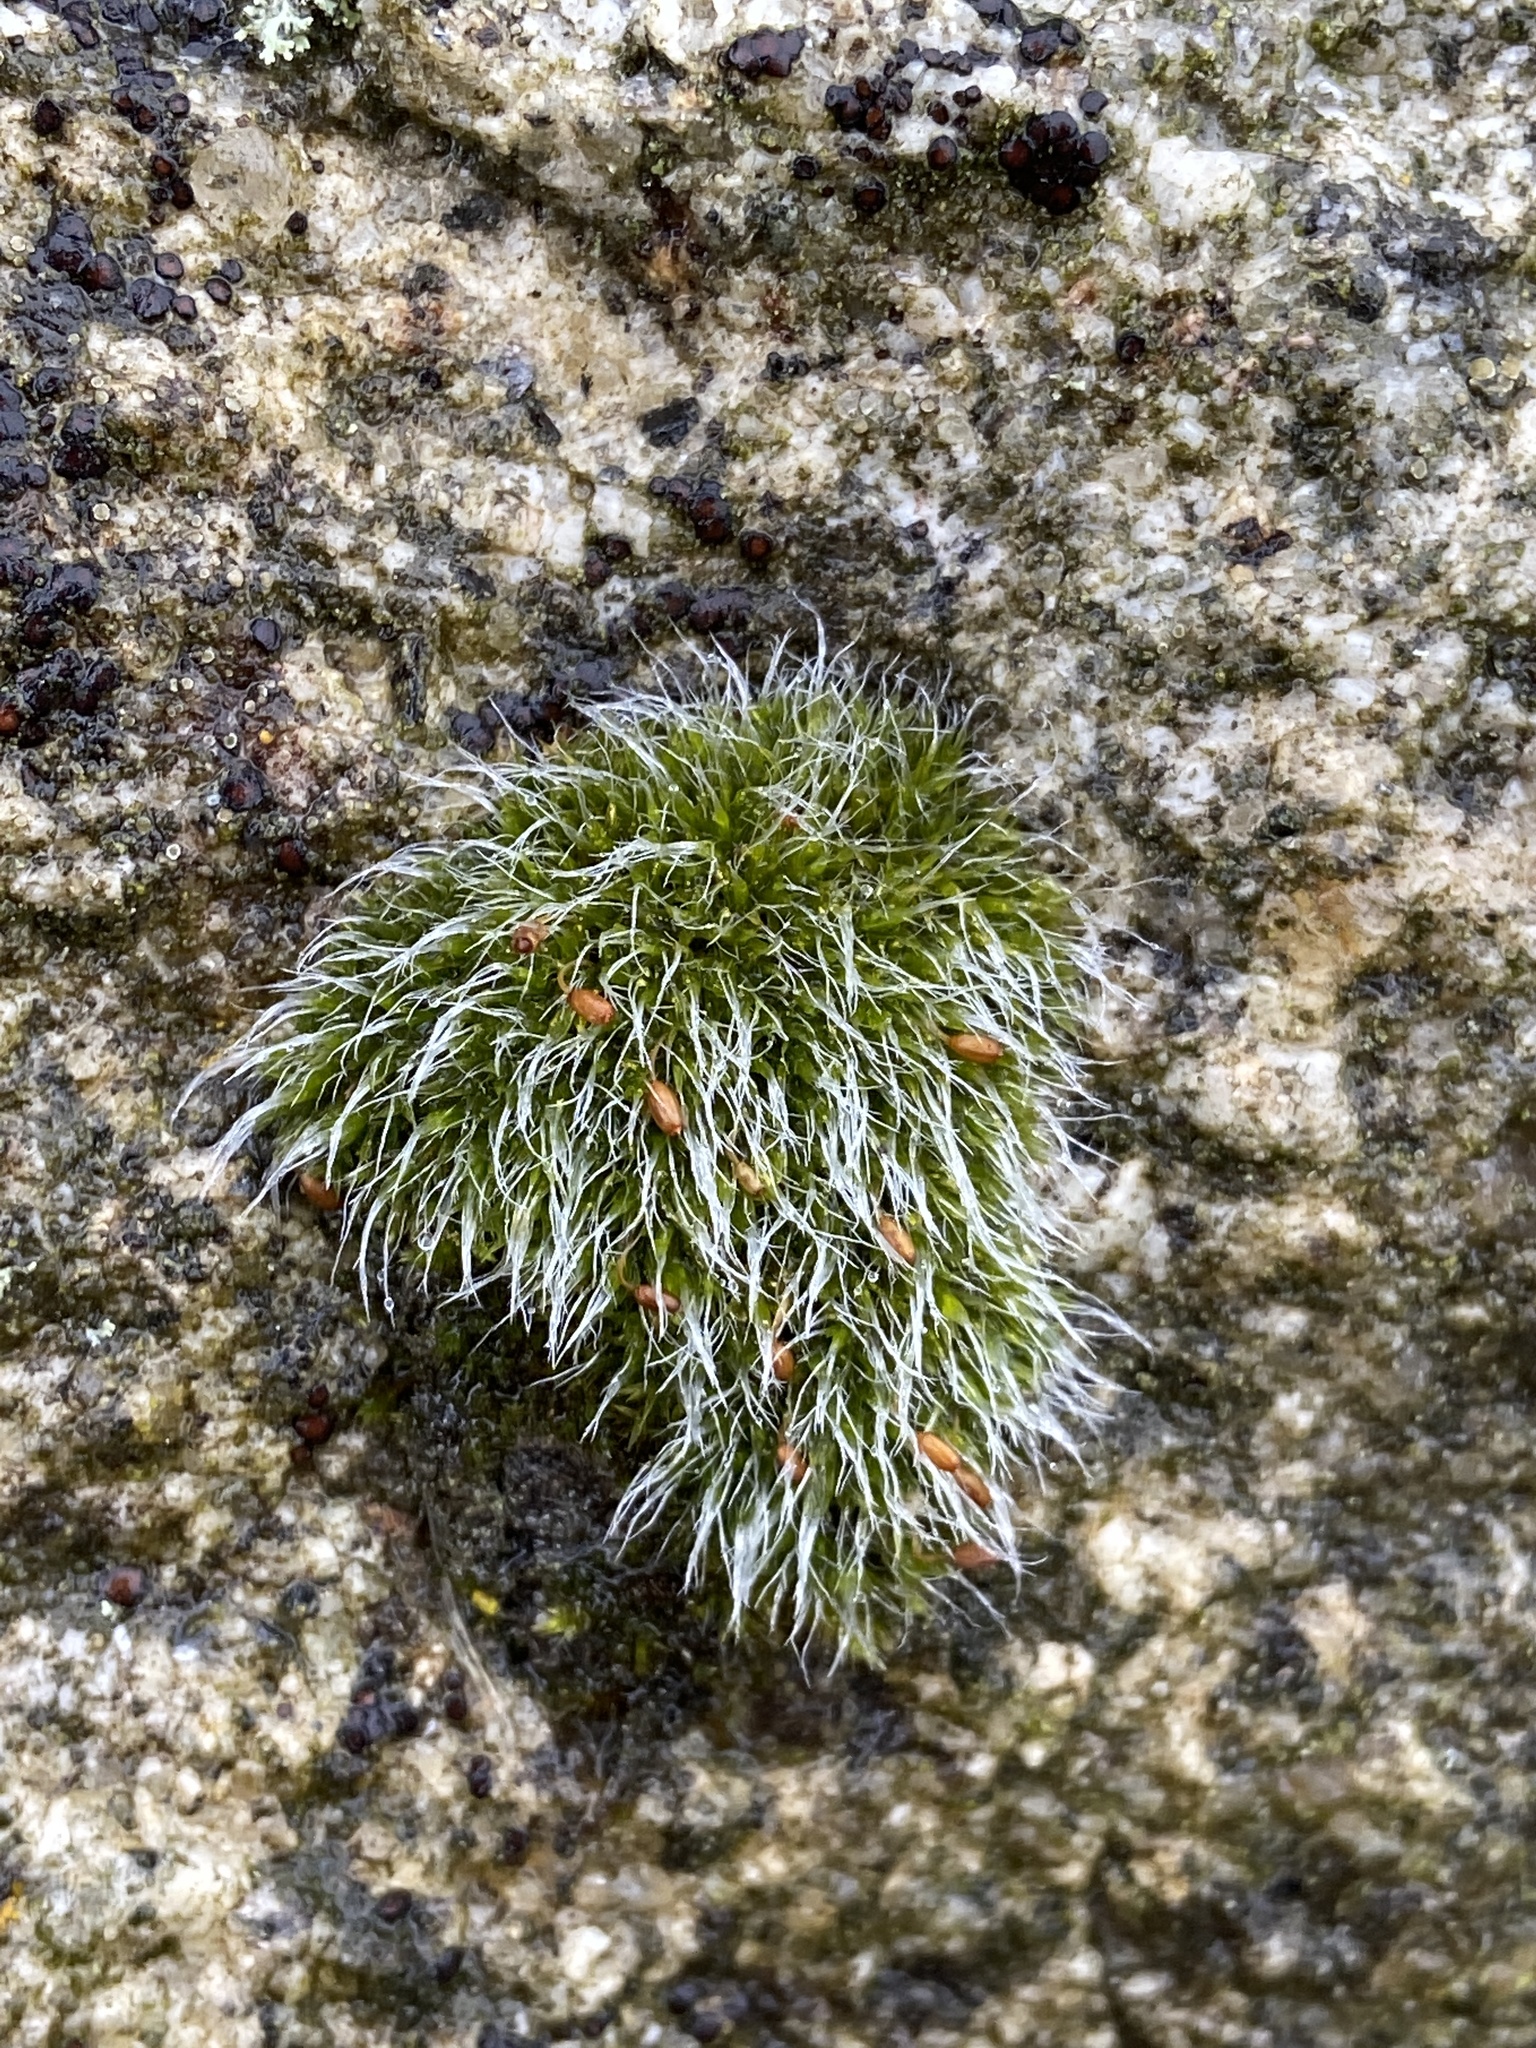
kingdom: Plantae
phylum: Bryophyta
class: Bryopsida
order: Grimmiales
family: Grimmiaceae
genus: Grimmia
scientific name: Grimmia pulvinata
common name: Grey-cushioned grimmia
